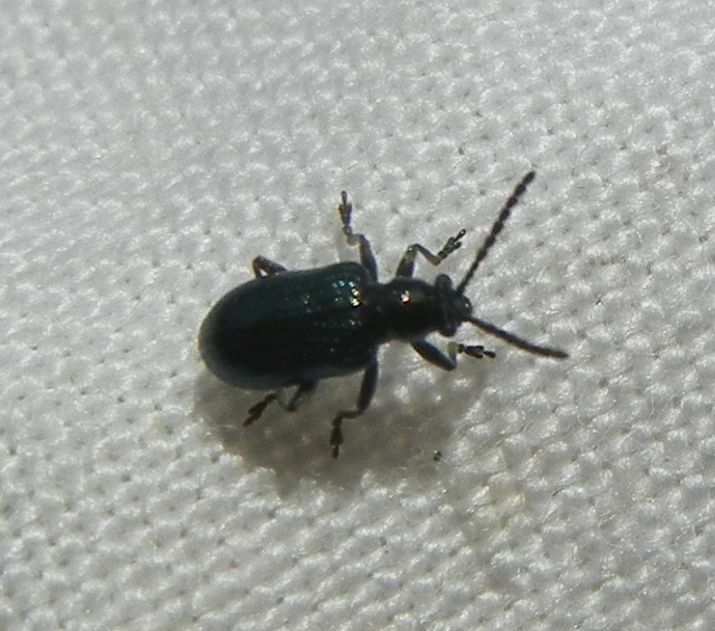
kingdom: Animalia
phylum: Arthropoda
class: Insecta
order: Coleoptera
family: Chrysomelidae
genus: Oulema
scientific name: Oulema gallaeciana
